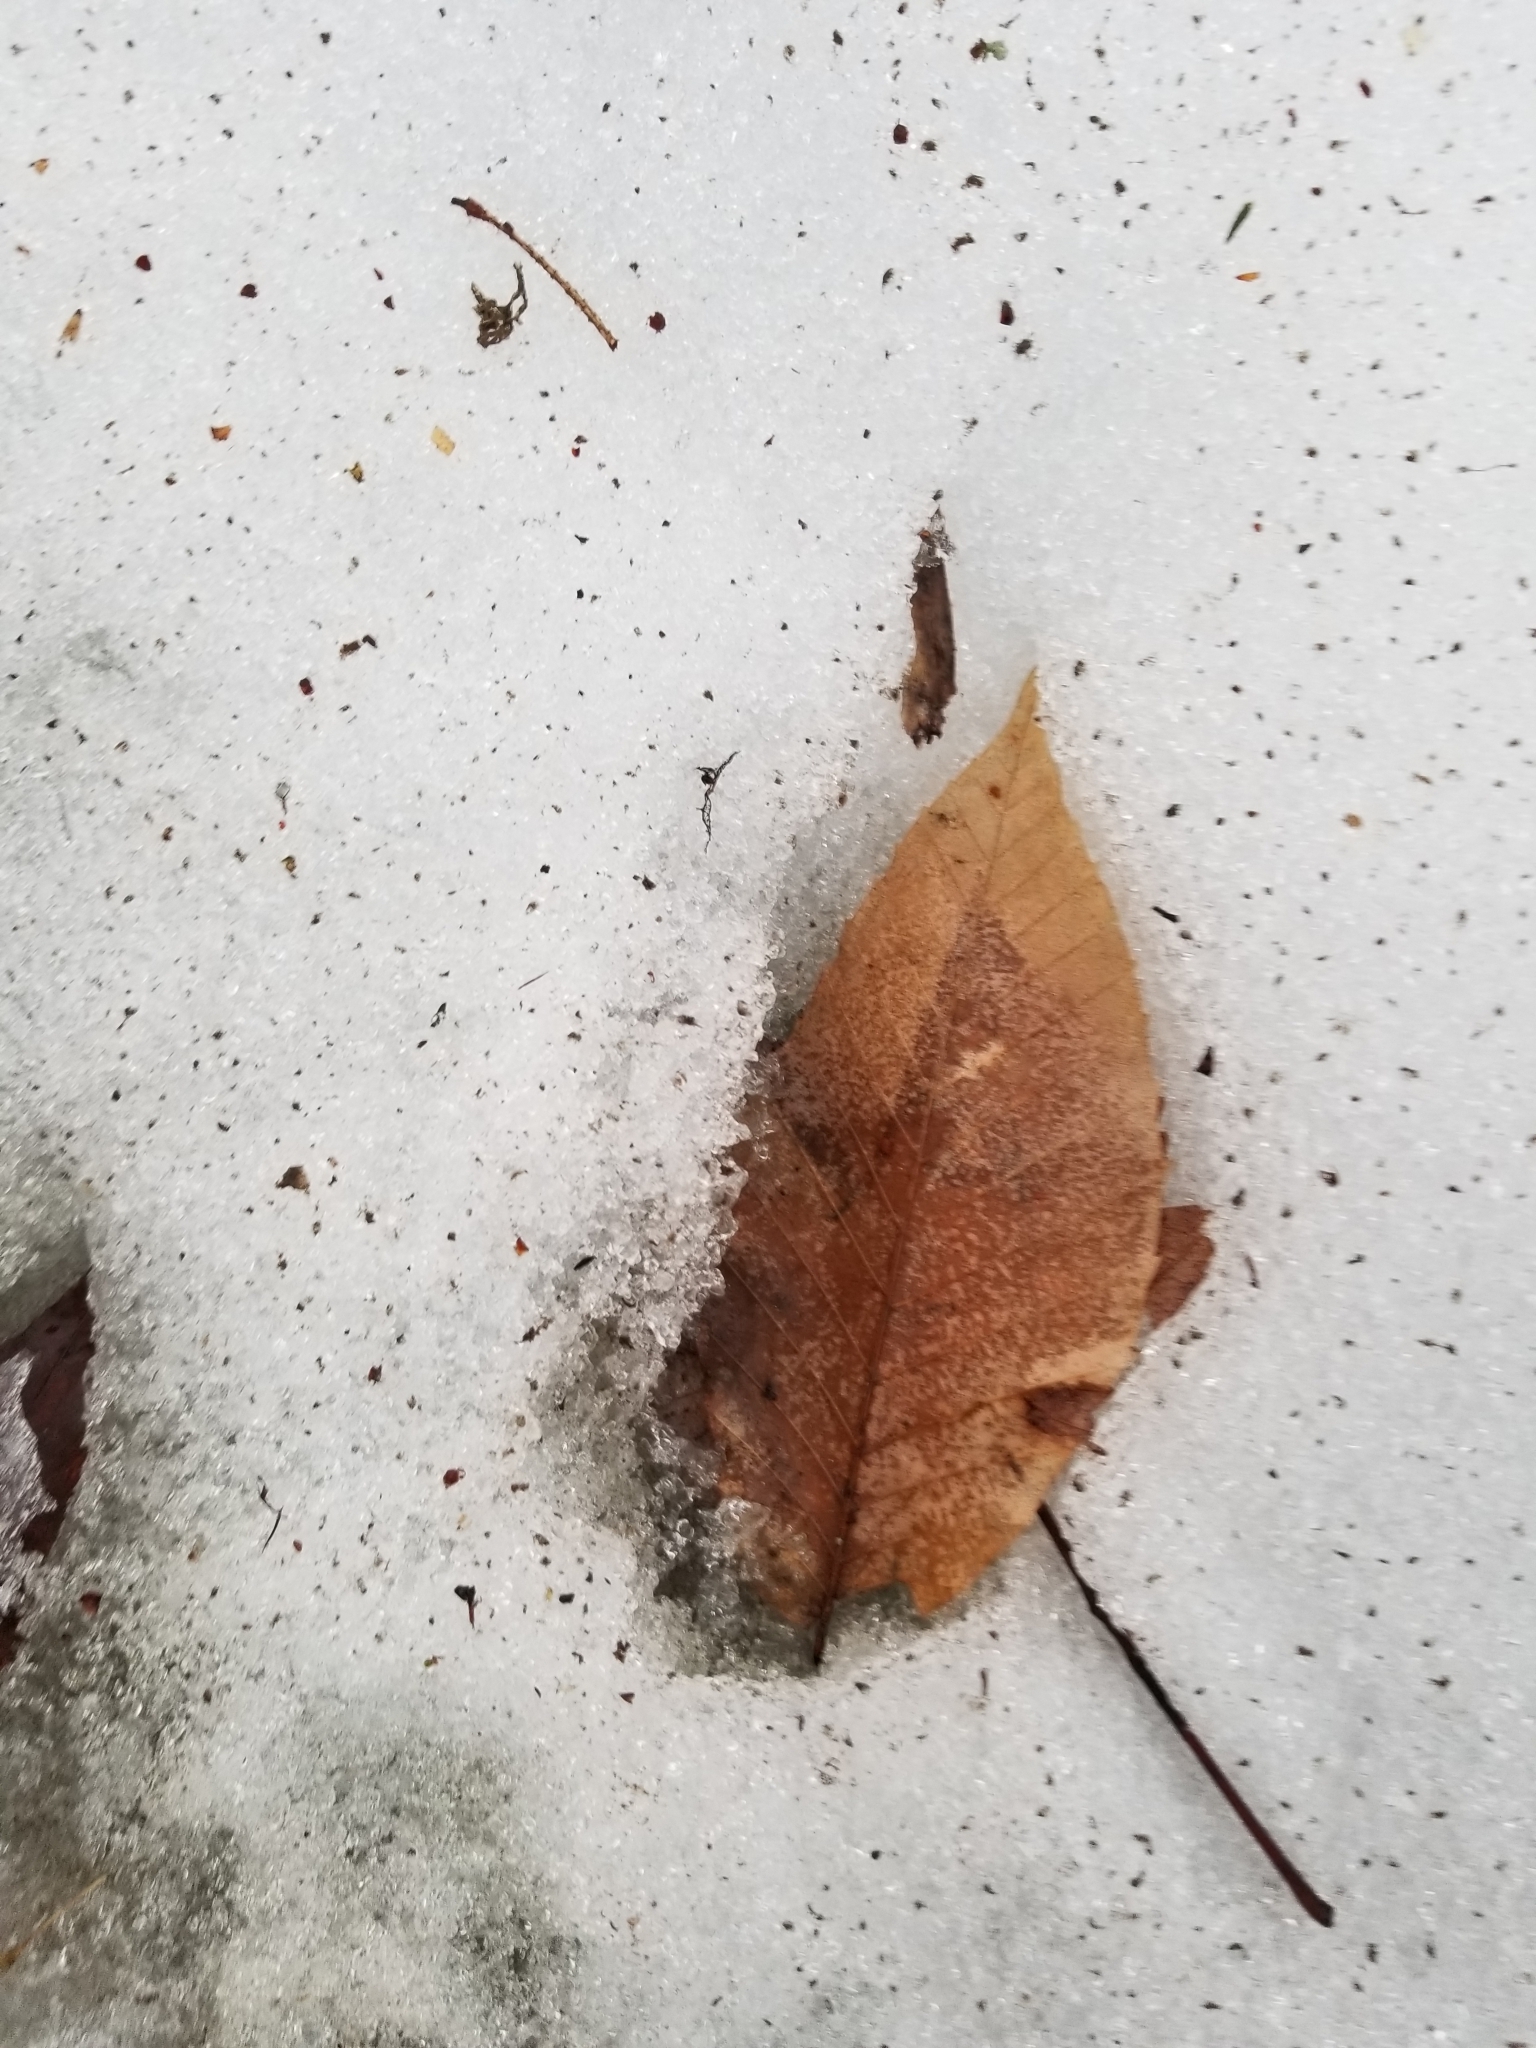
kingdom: Plantae
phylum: Tracheophyta
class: Magnoliopsida
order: Fagales
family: Fagaceae
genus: Fagus
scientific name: Fagus grandifolia
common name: American beech
